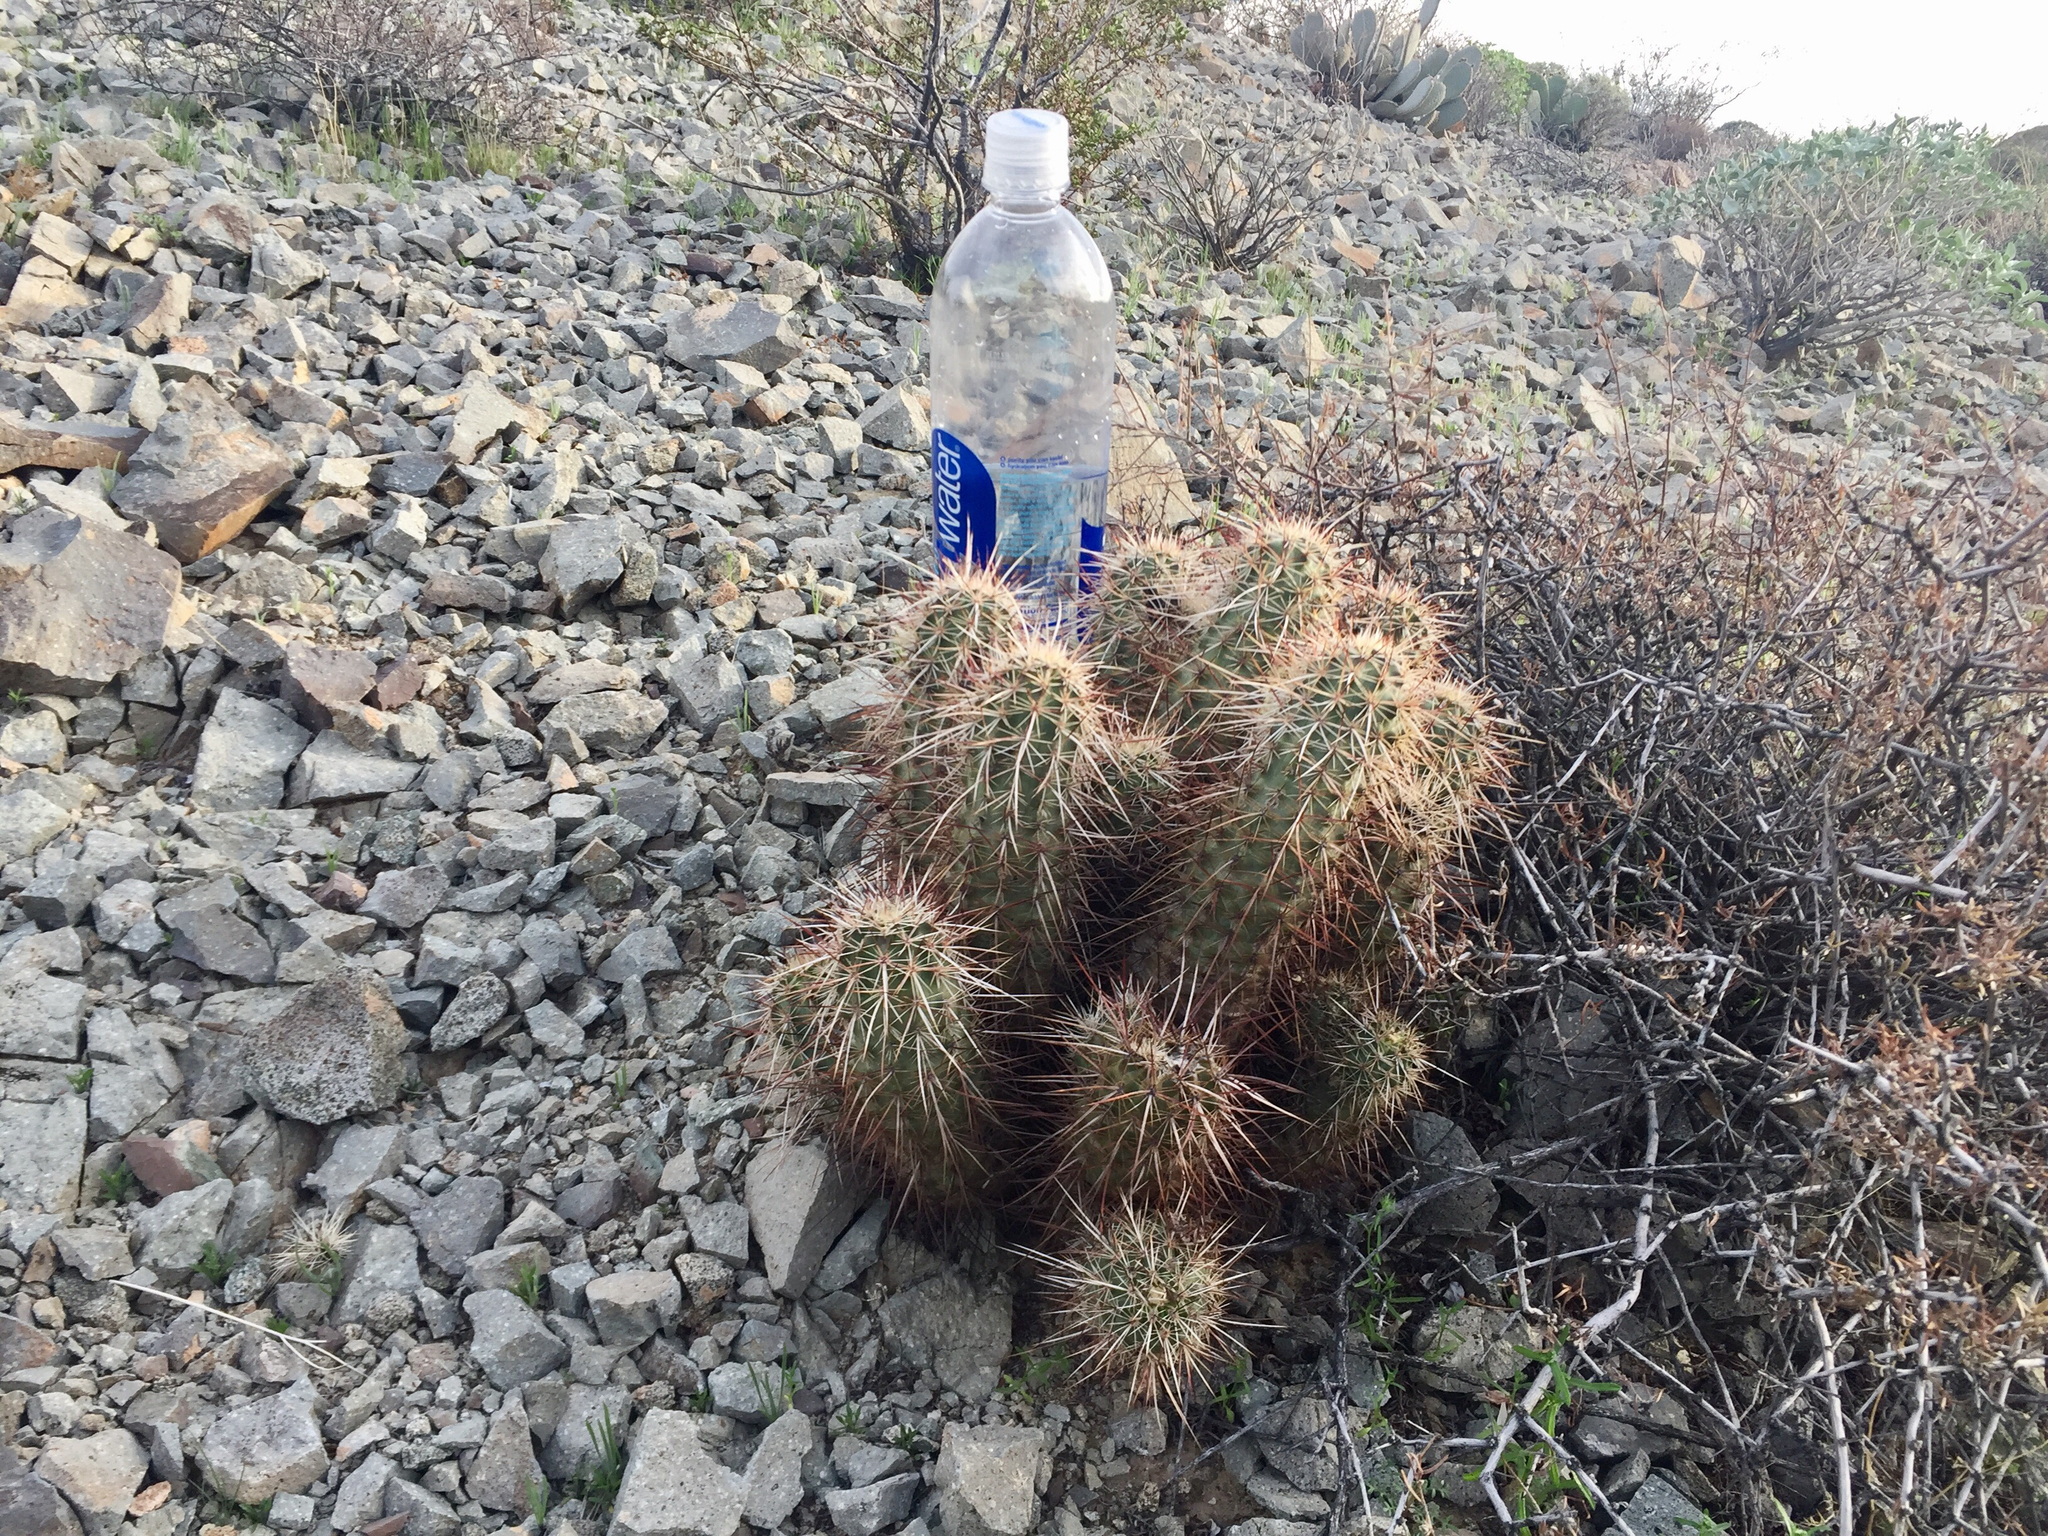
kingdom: Plantae
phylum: Tracheophyta
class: Magnoliopsida
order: Caryophyllales
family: Cactaceae
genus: Echinocereus
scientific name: Echinocereus engelmannii
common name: Engelmann's hedgehog cactus
